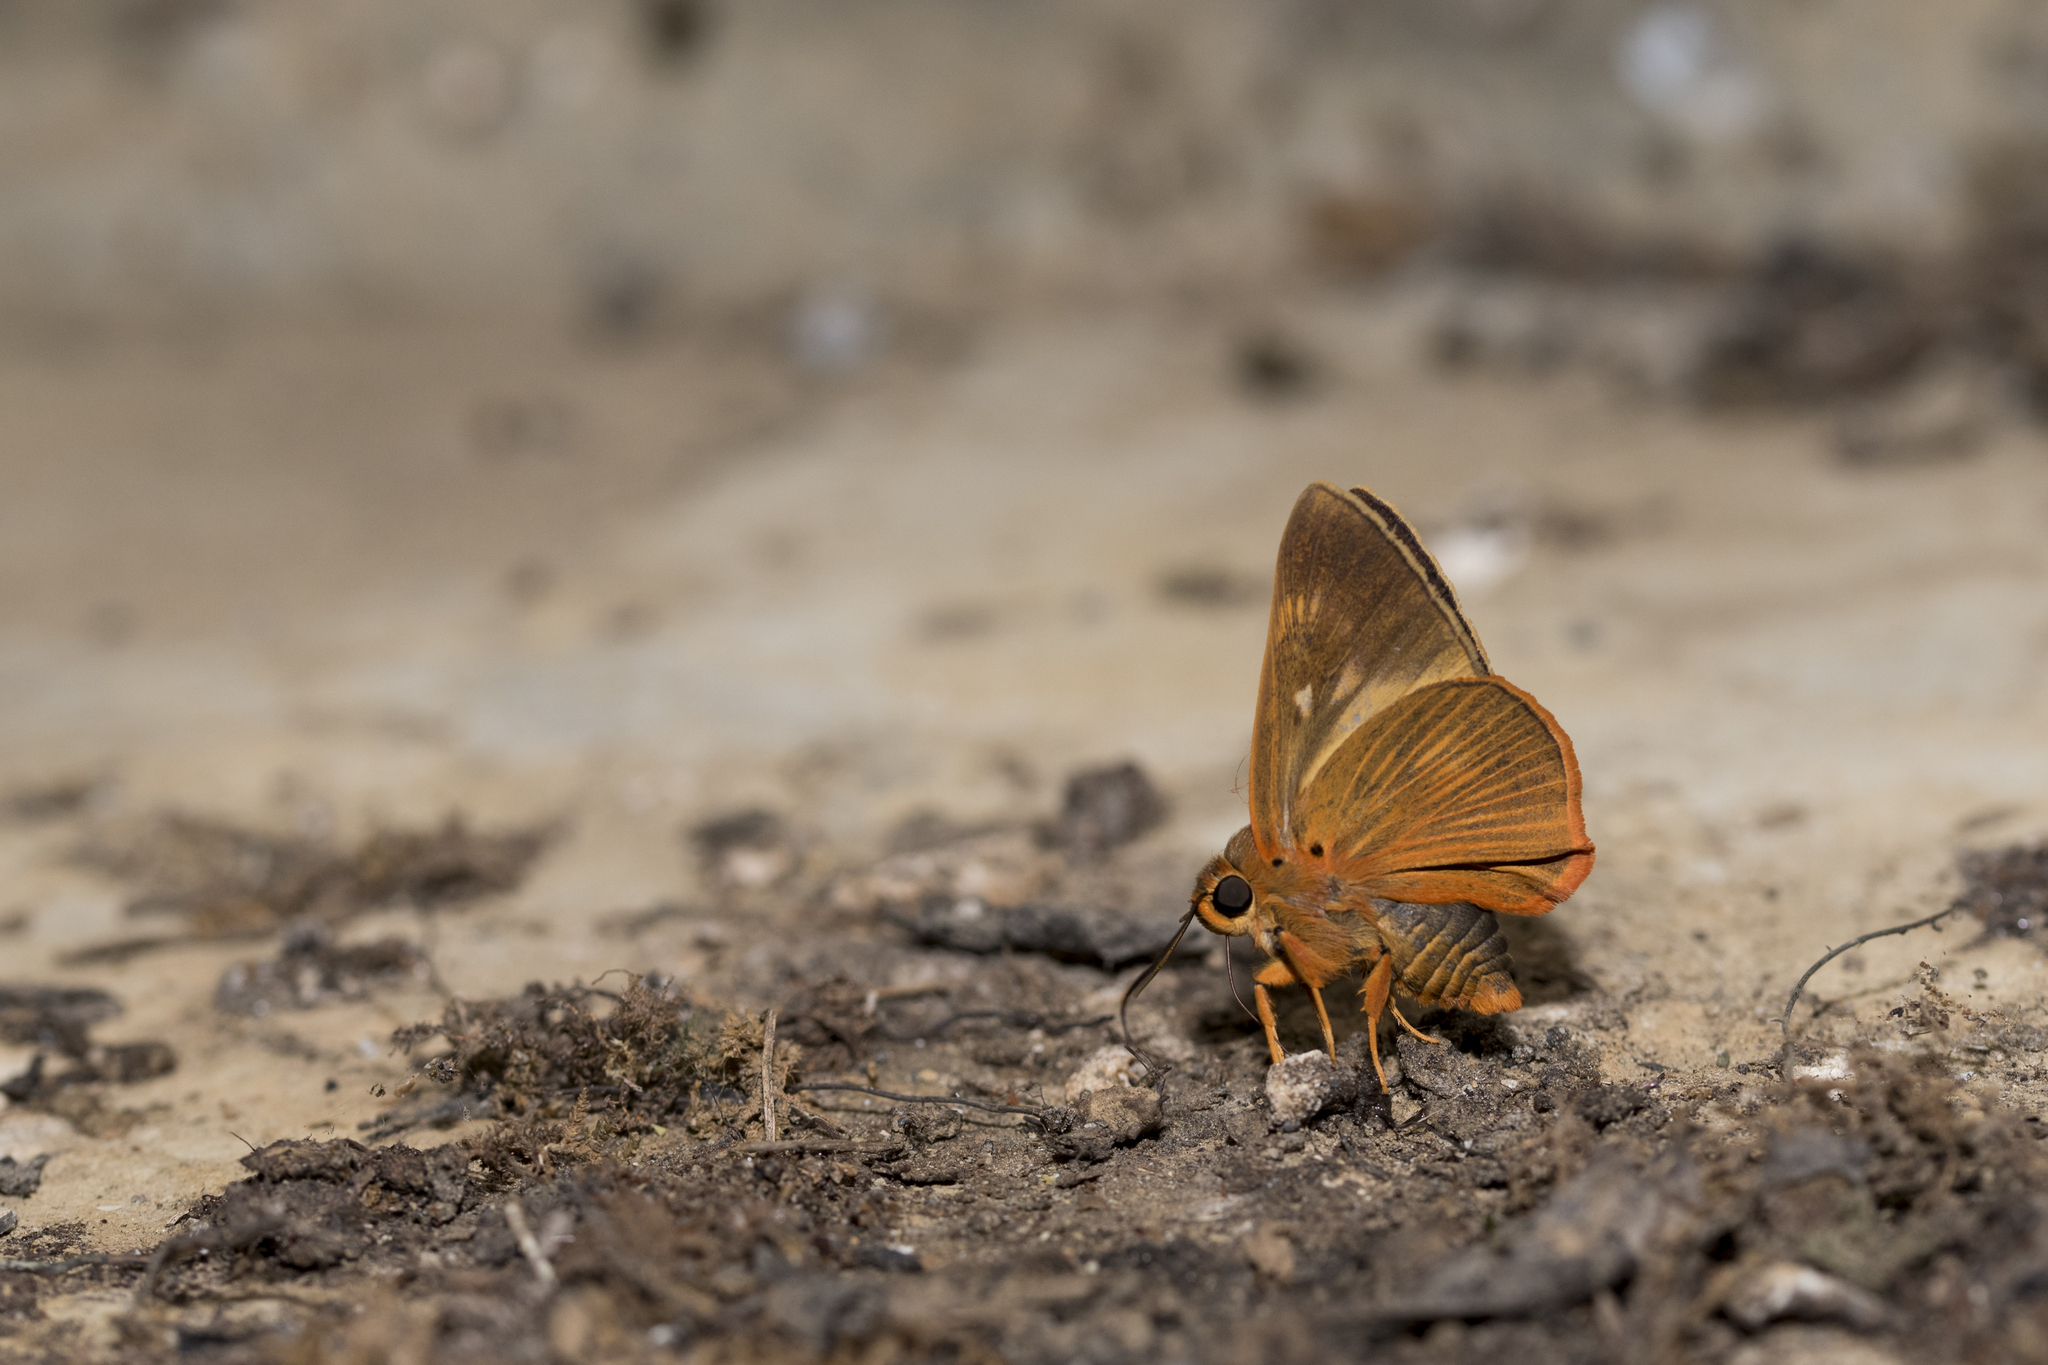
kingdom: Animalia
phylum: Arthropoda
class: Insecta
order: Lepidoptera
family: Hesperiidae
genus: Bibasis
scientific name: Bibasis jaina
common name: Common orange awlet
